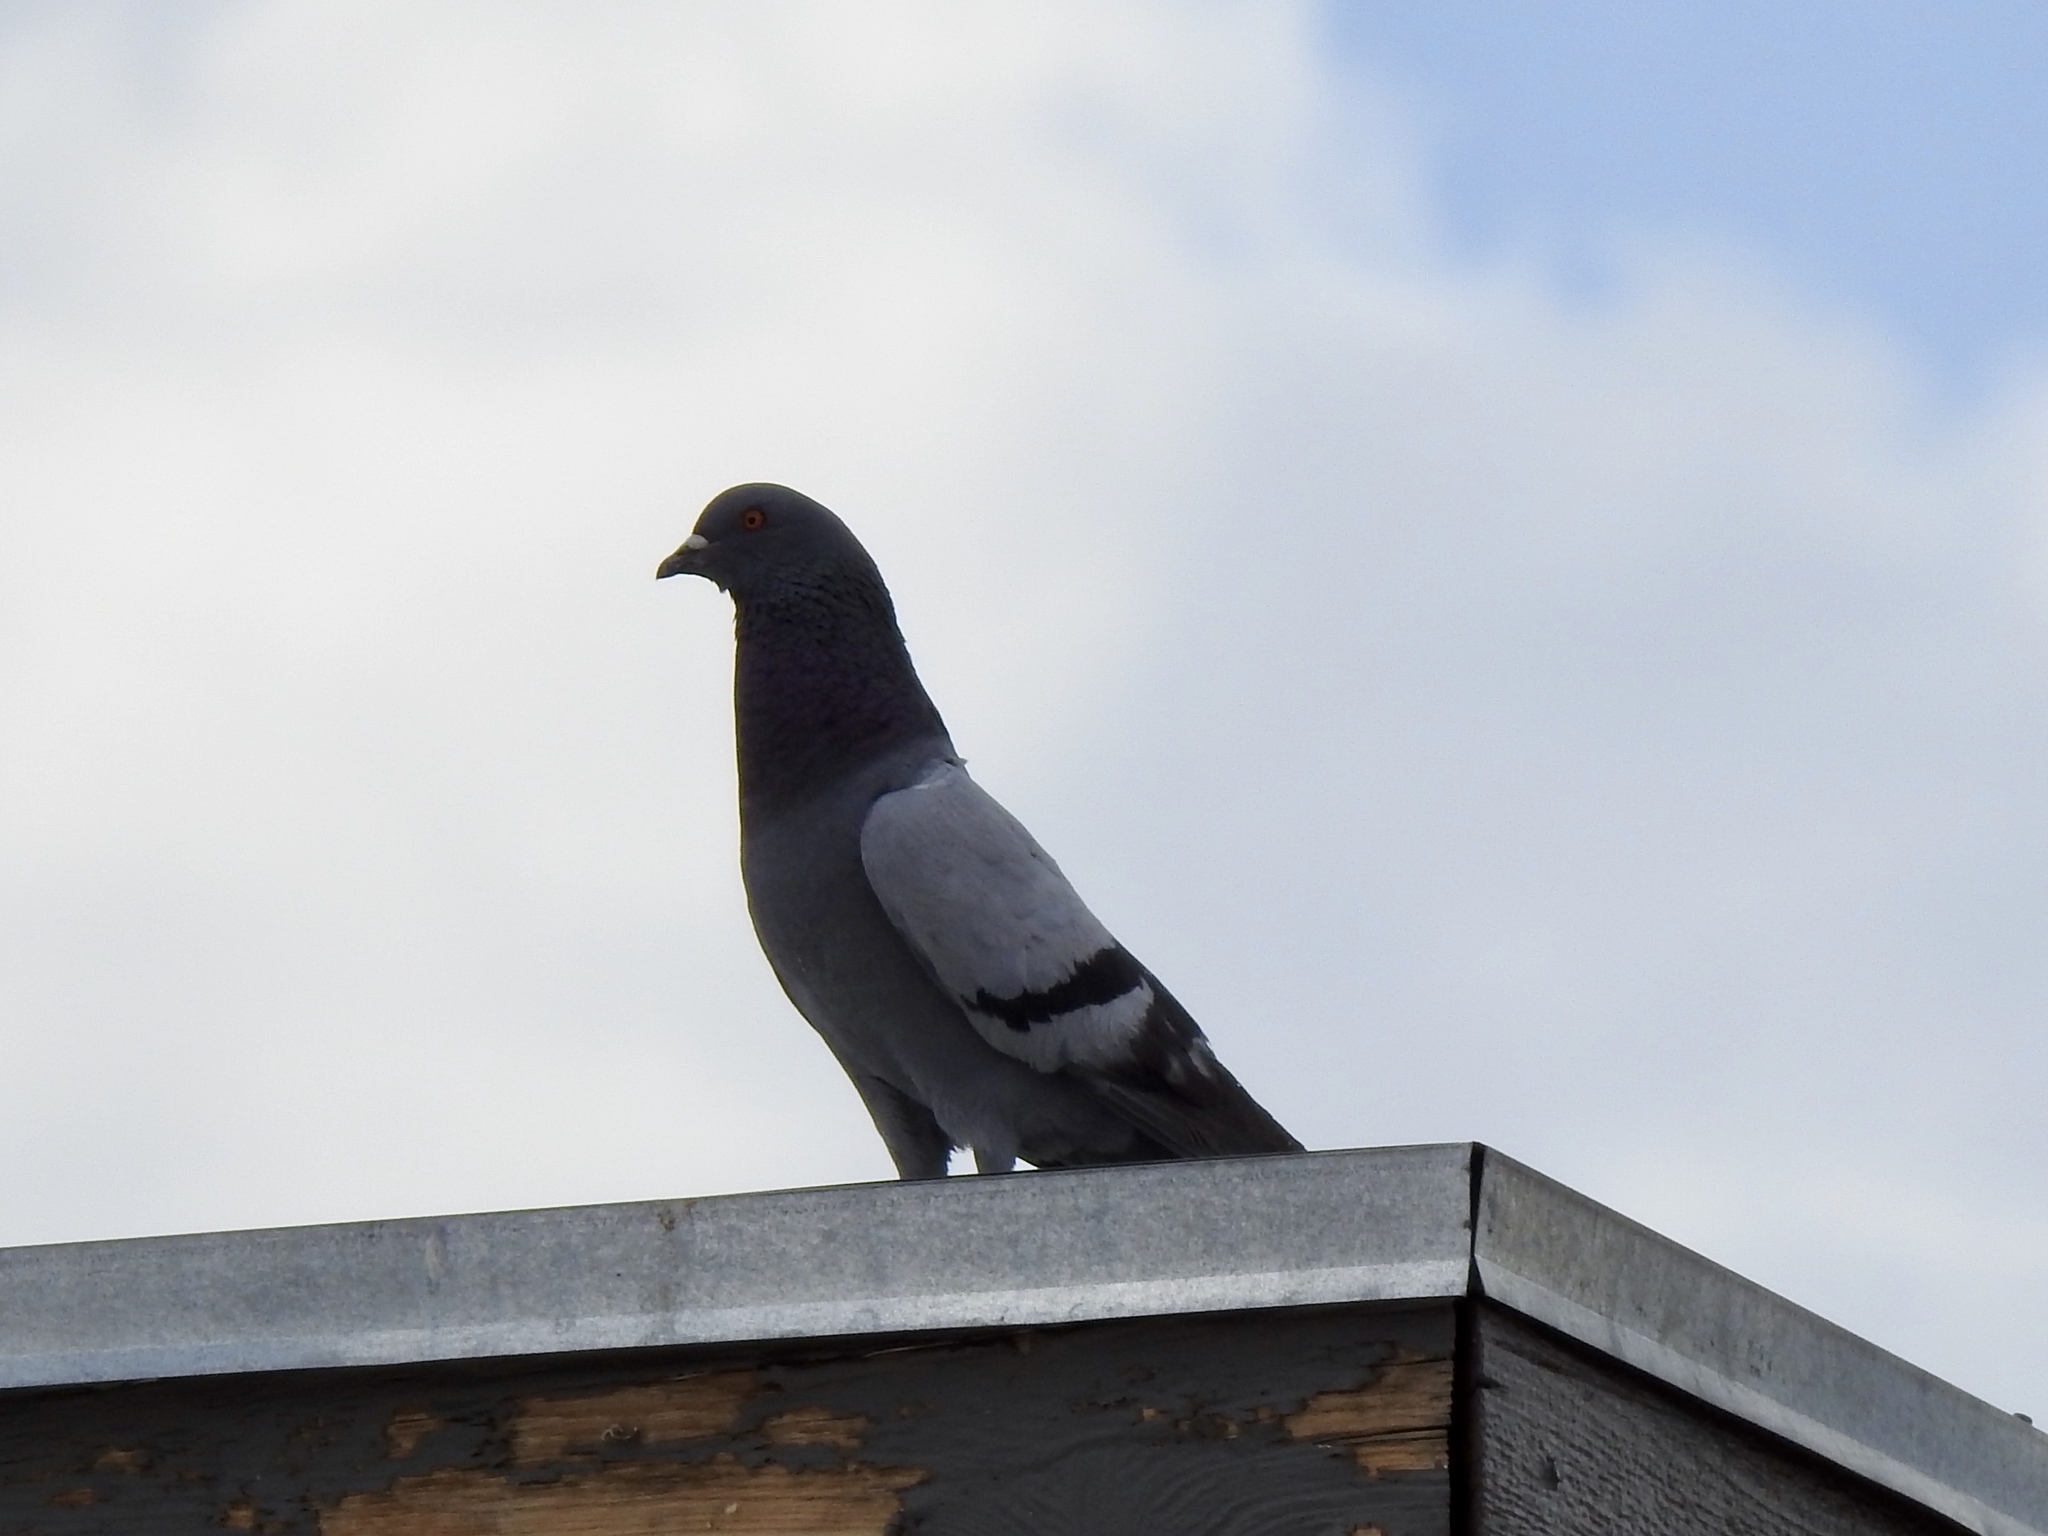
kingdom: Animalia
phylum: Chordata
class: Aves
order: Columbiformes
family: Columbidae
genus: Columba
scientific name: Columba livia
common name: Rock pigeon
